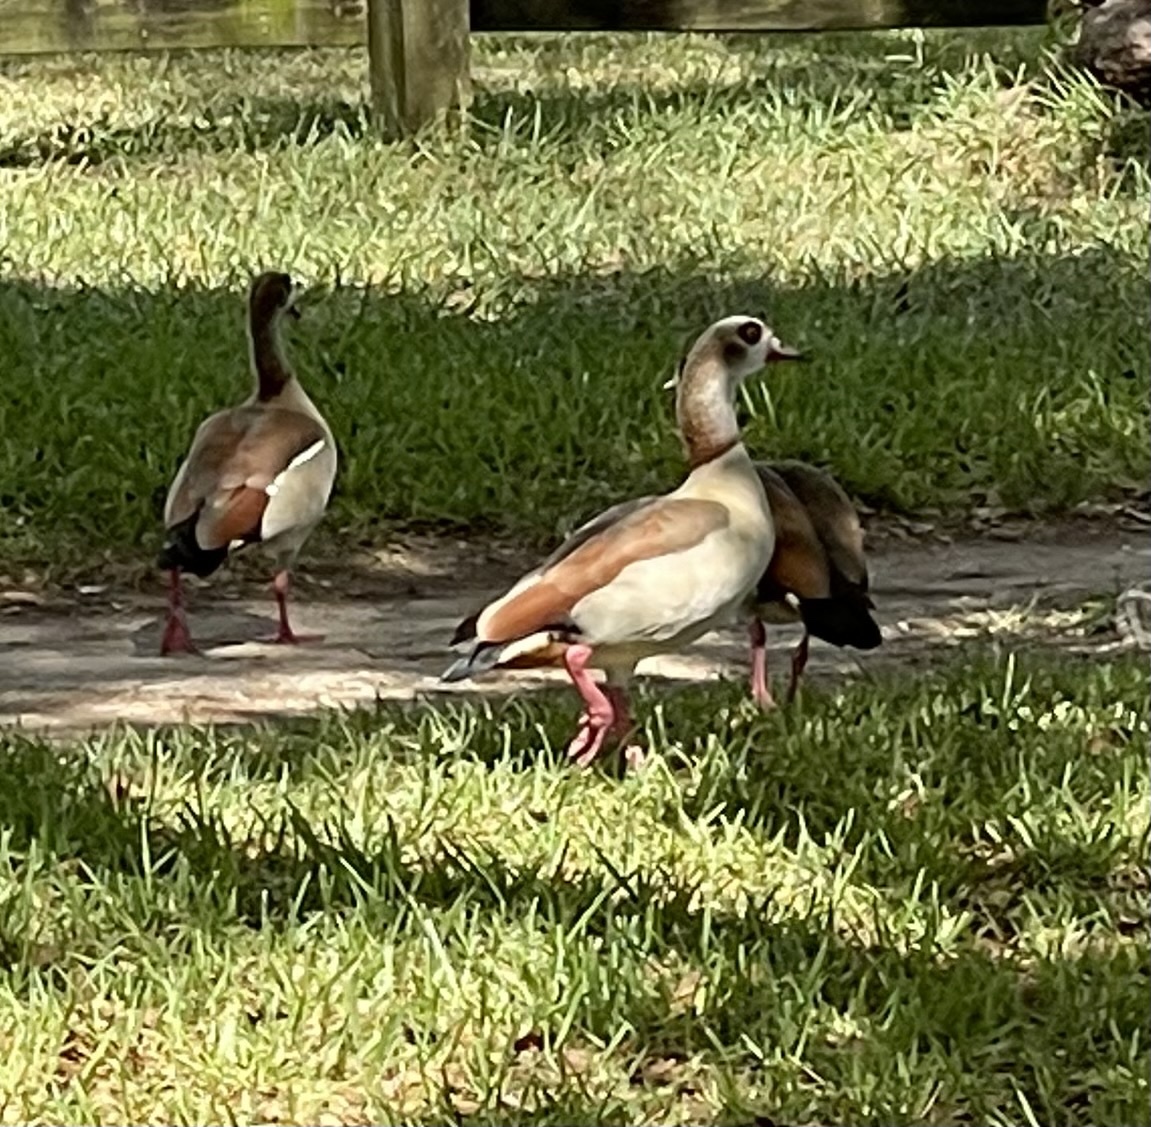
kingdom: Animalia
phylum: Chordata
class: Aves
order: Anseriformes
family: Anatidae
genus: Alopochen
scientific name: Alopochen aegyptiaca
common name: Egyptian goose
